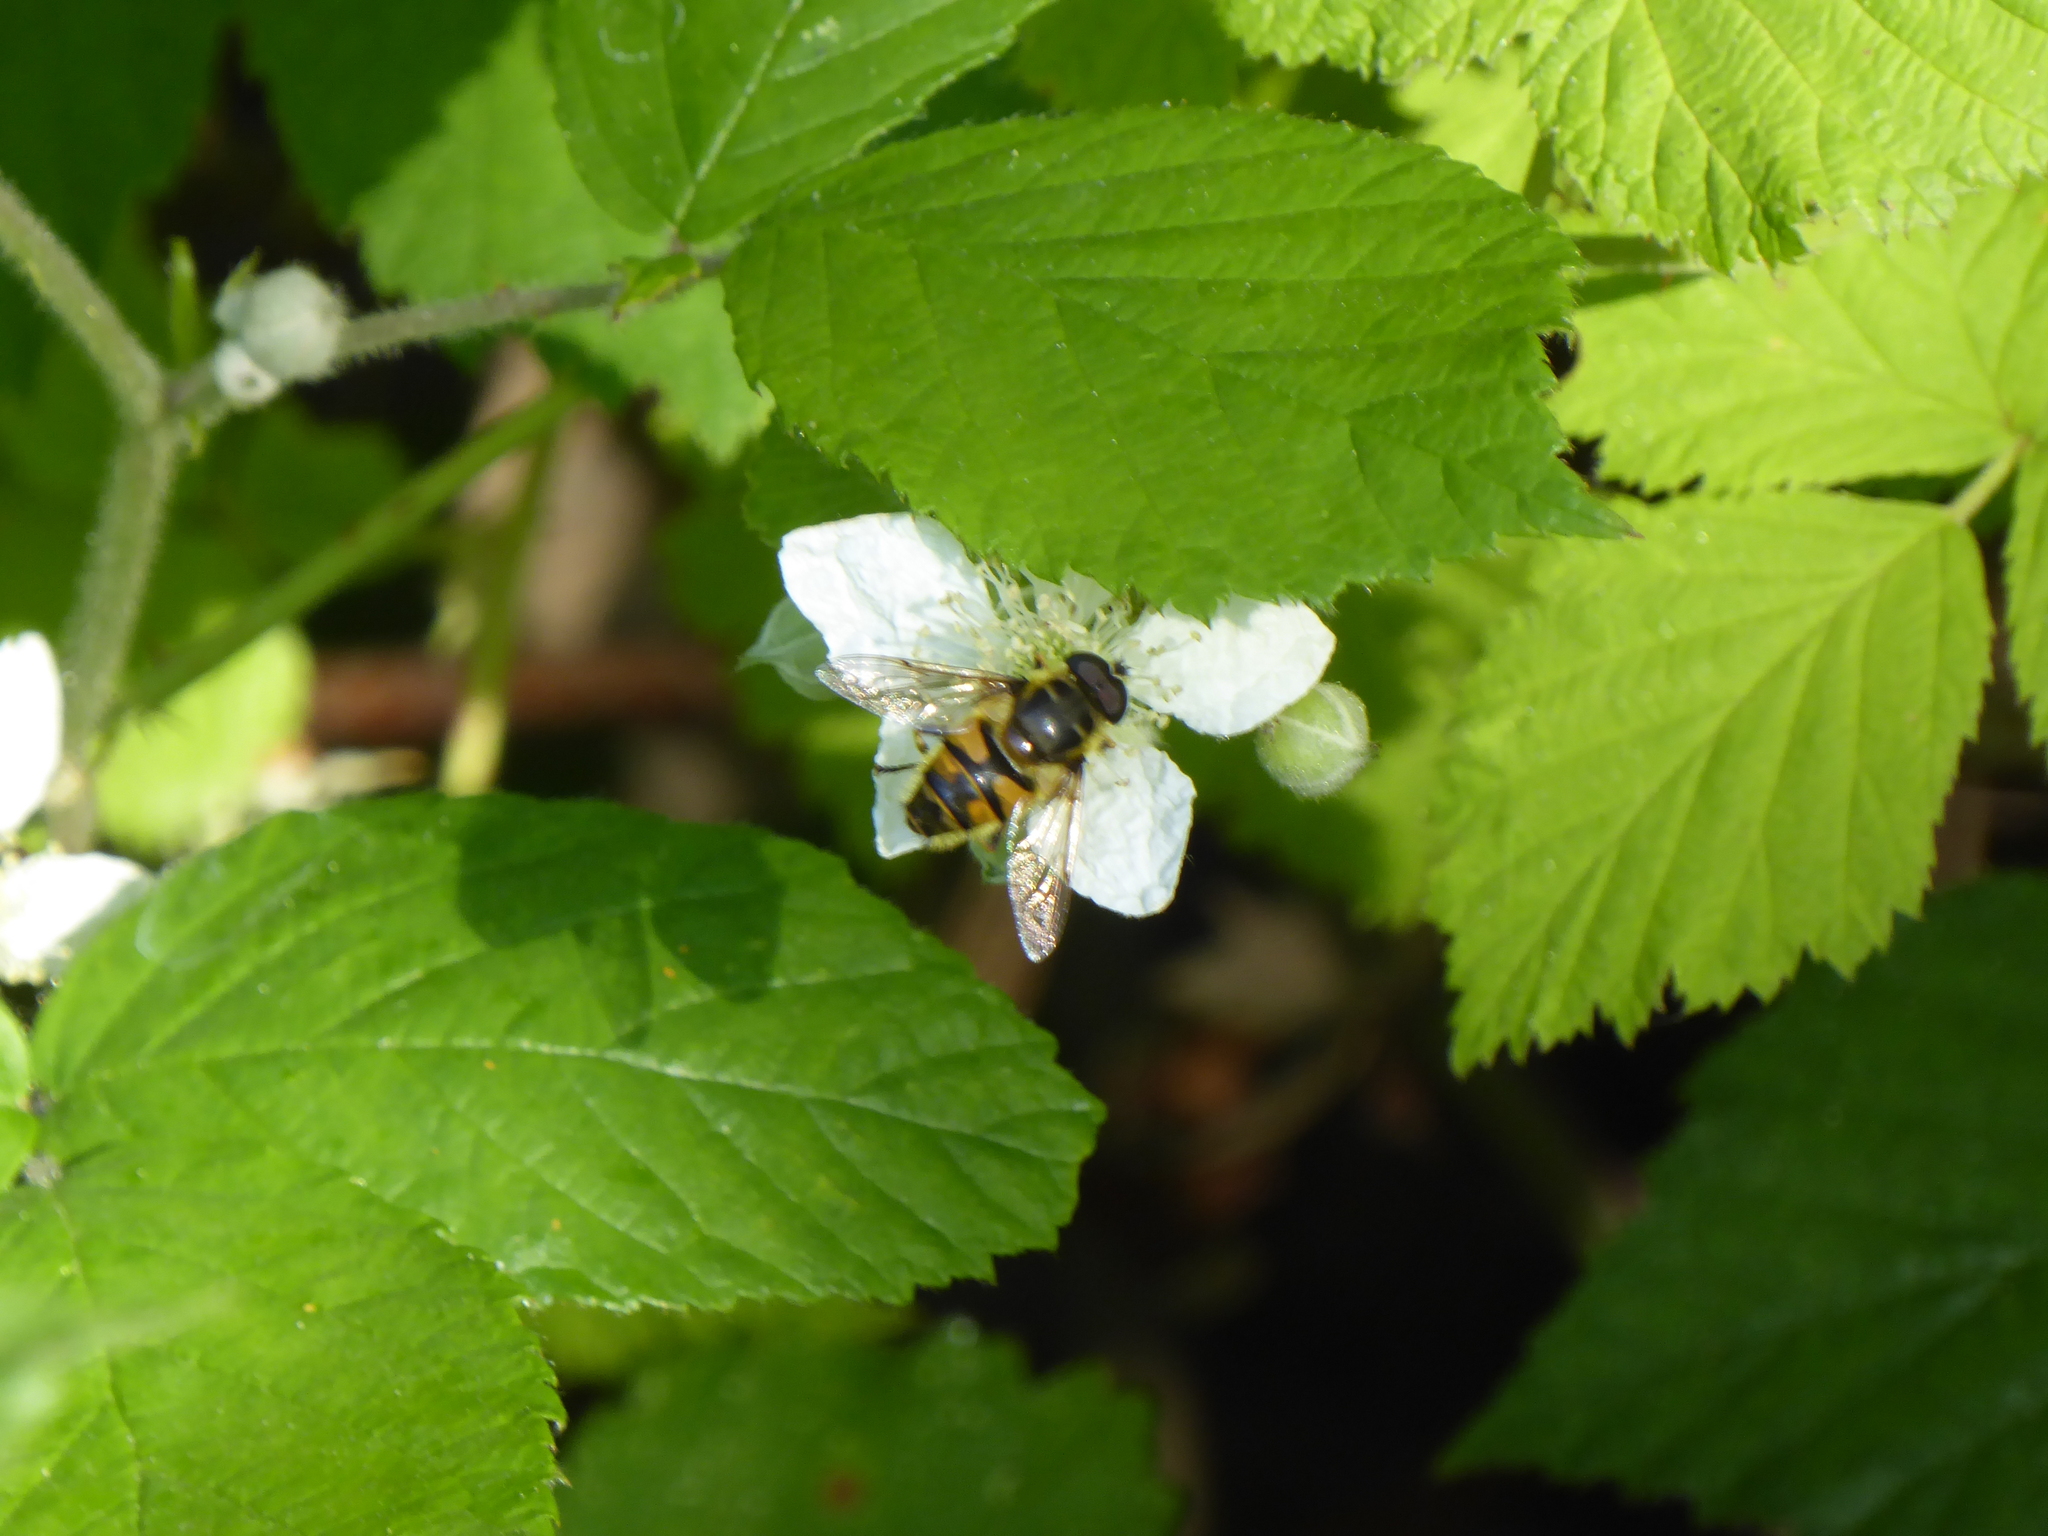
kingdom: Animalia
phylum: Arthropoda
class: Insecta
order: Diptera
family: Syrphidae
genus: Myathropa
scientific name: Myathropa florea
